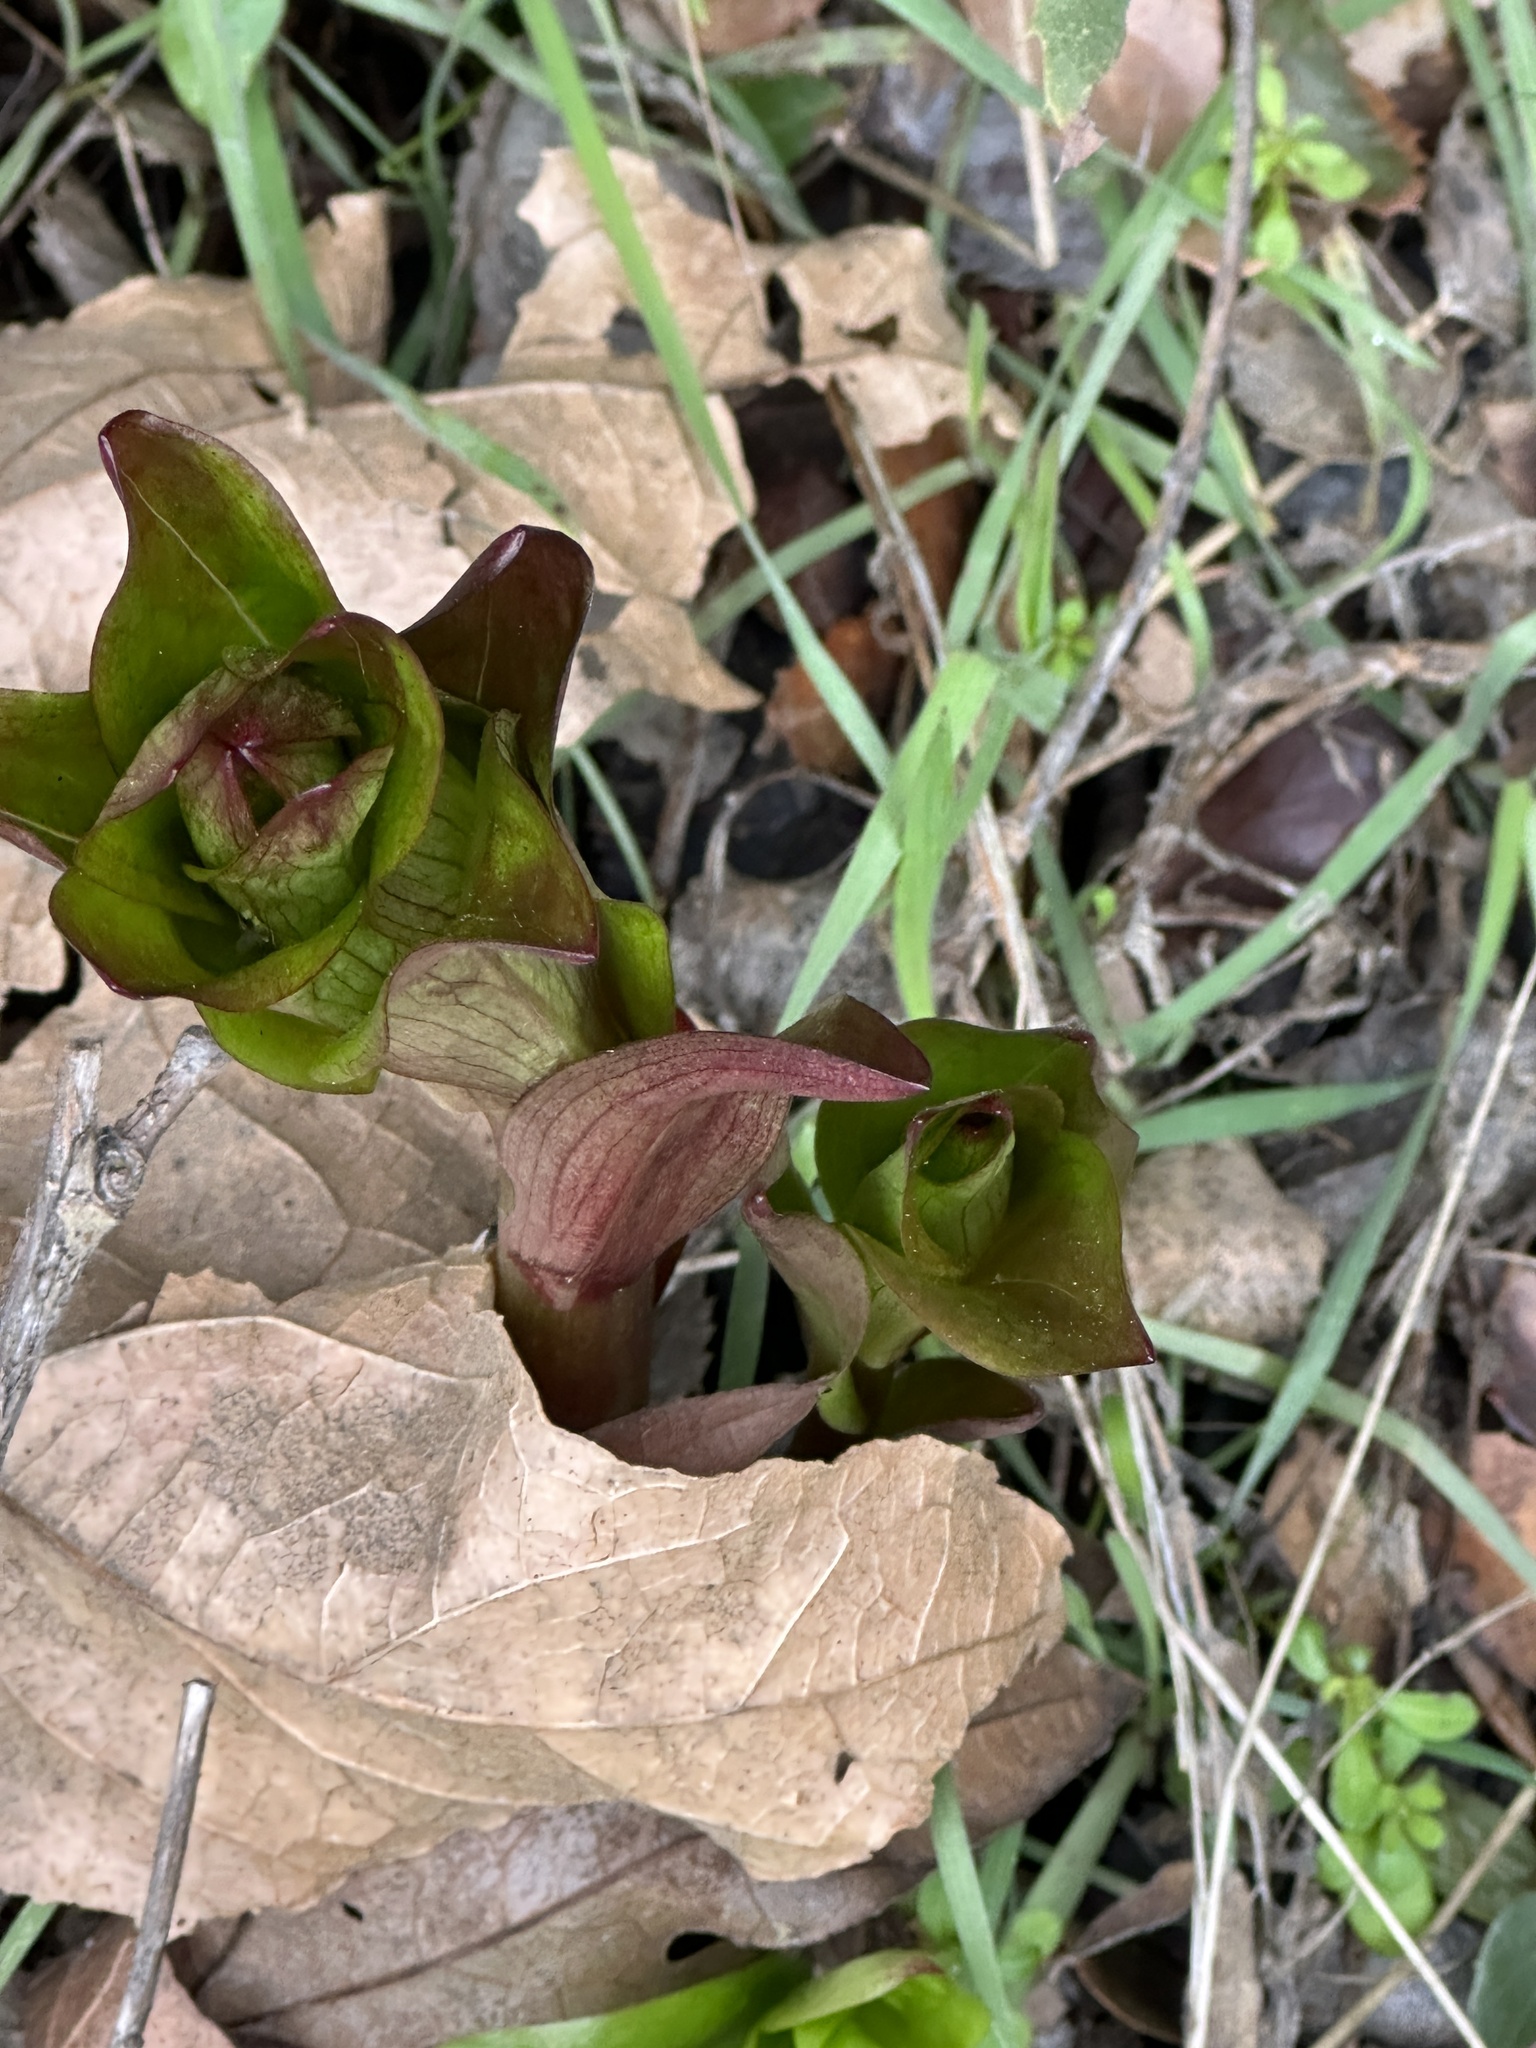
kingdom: Plantae
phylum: Tracheophyta
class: Liliopsida
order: Liliales
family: Liliaceae
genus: Lilium
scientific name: Lilium humboldtii
